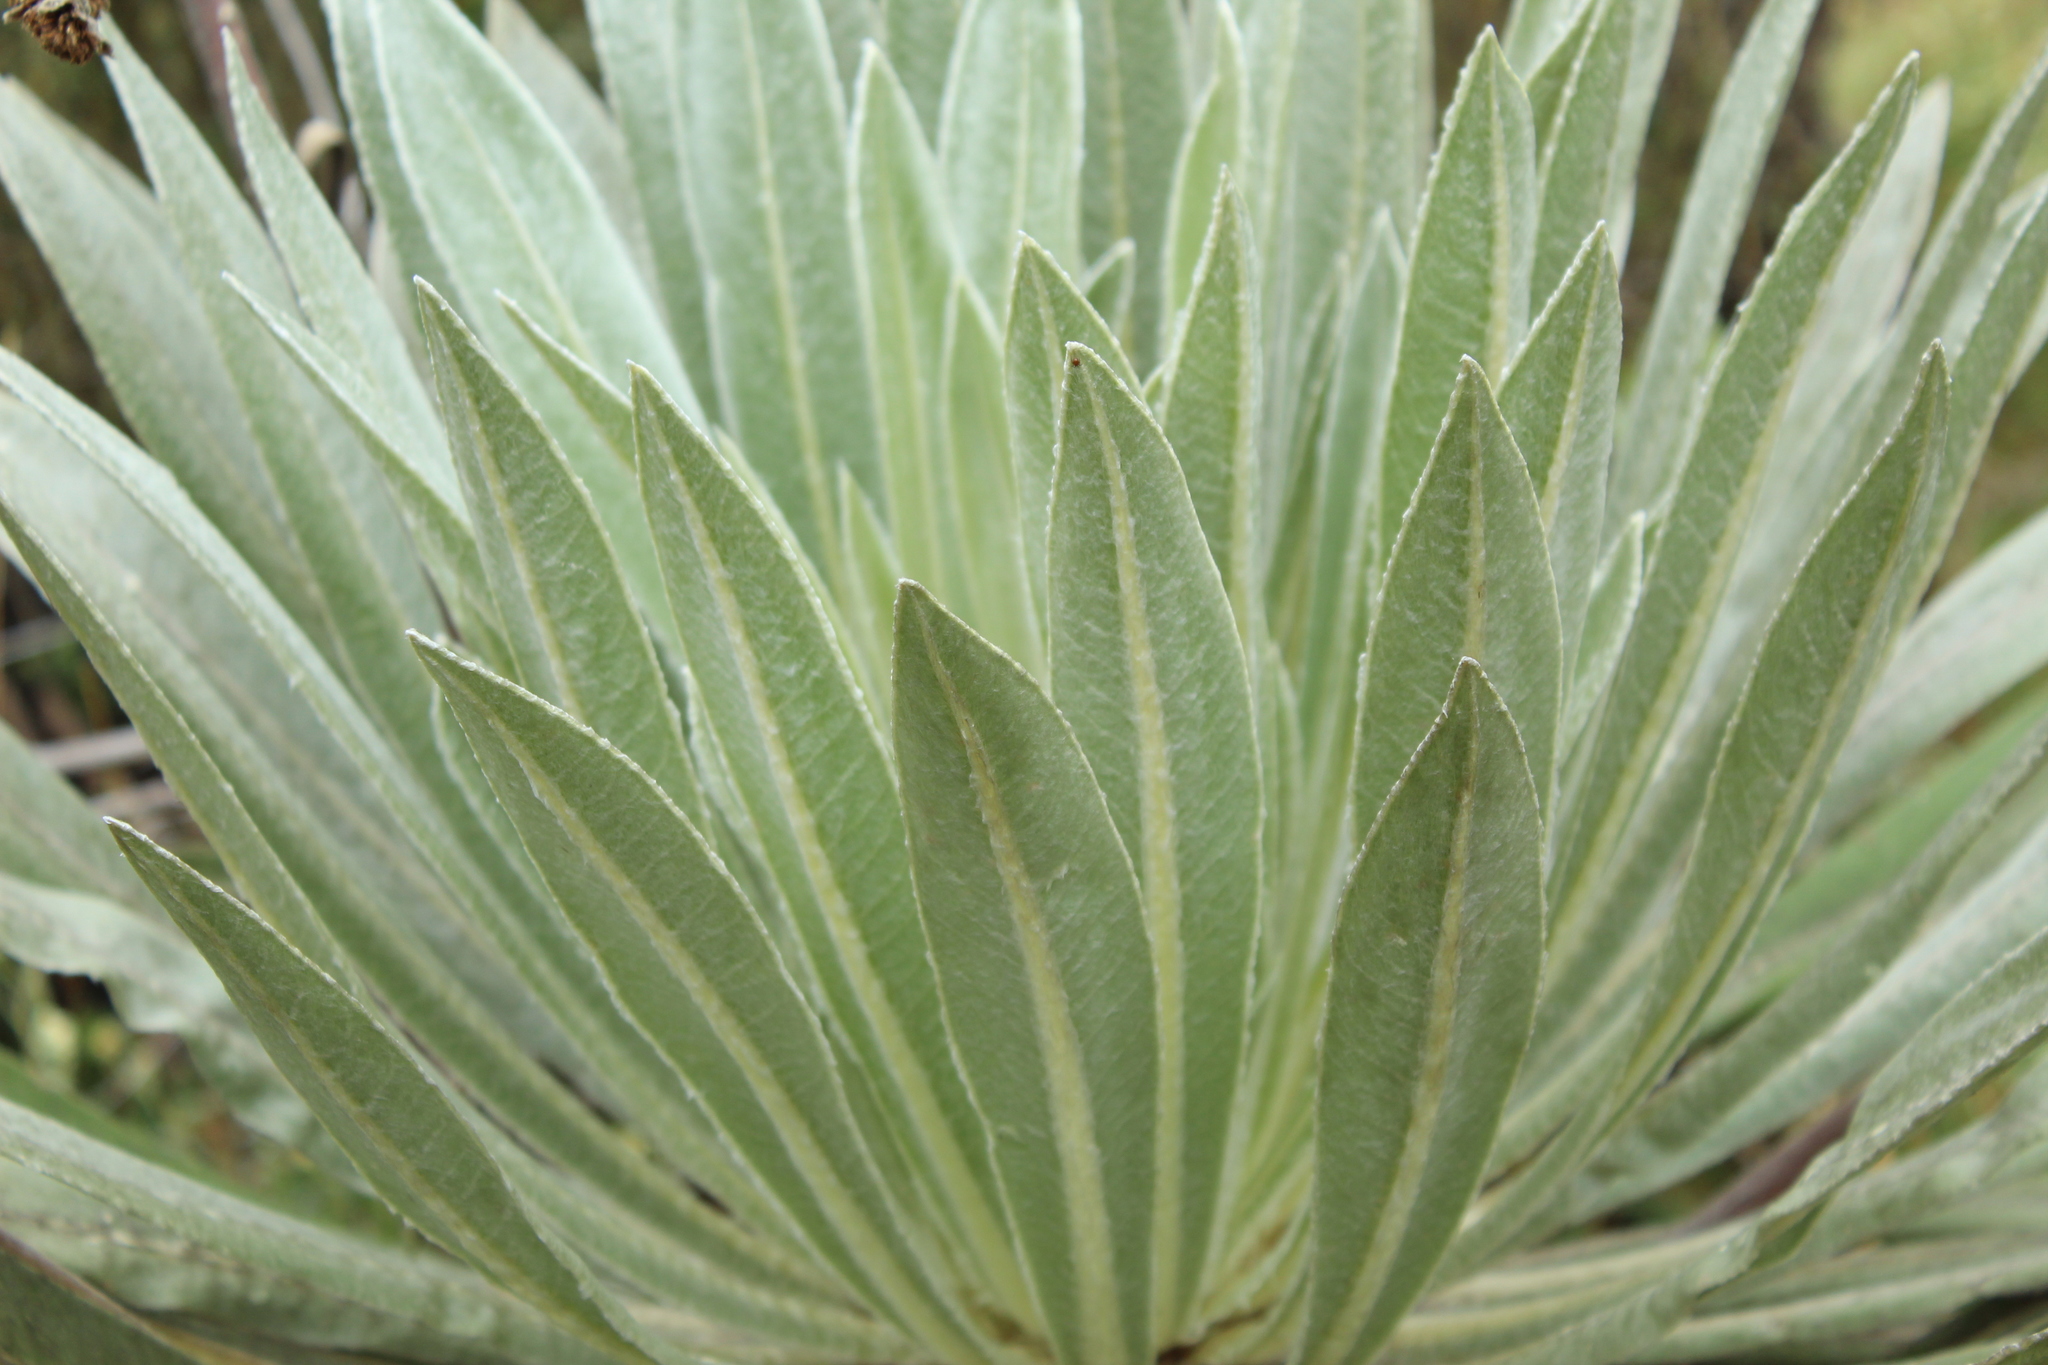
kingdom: Plantae
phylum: Tracheophyta
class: Magnoliopsida
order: Asterales
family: Asteraceae
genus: Espeletia
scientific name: Espeletia tunjana
